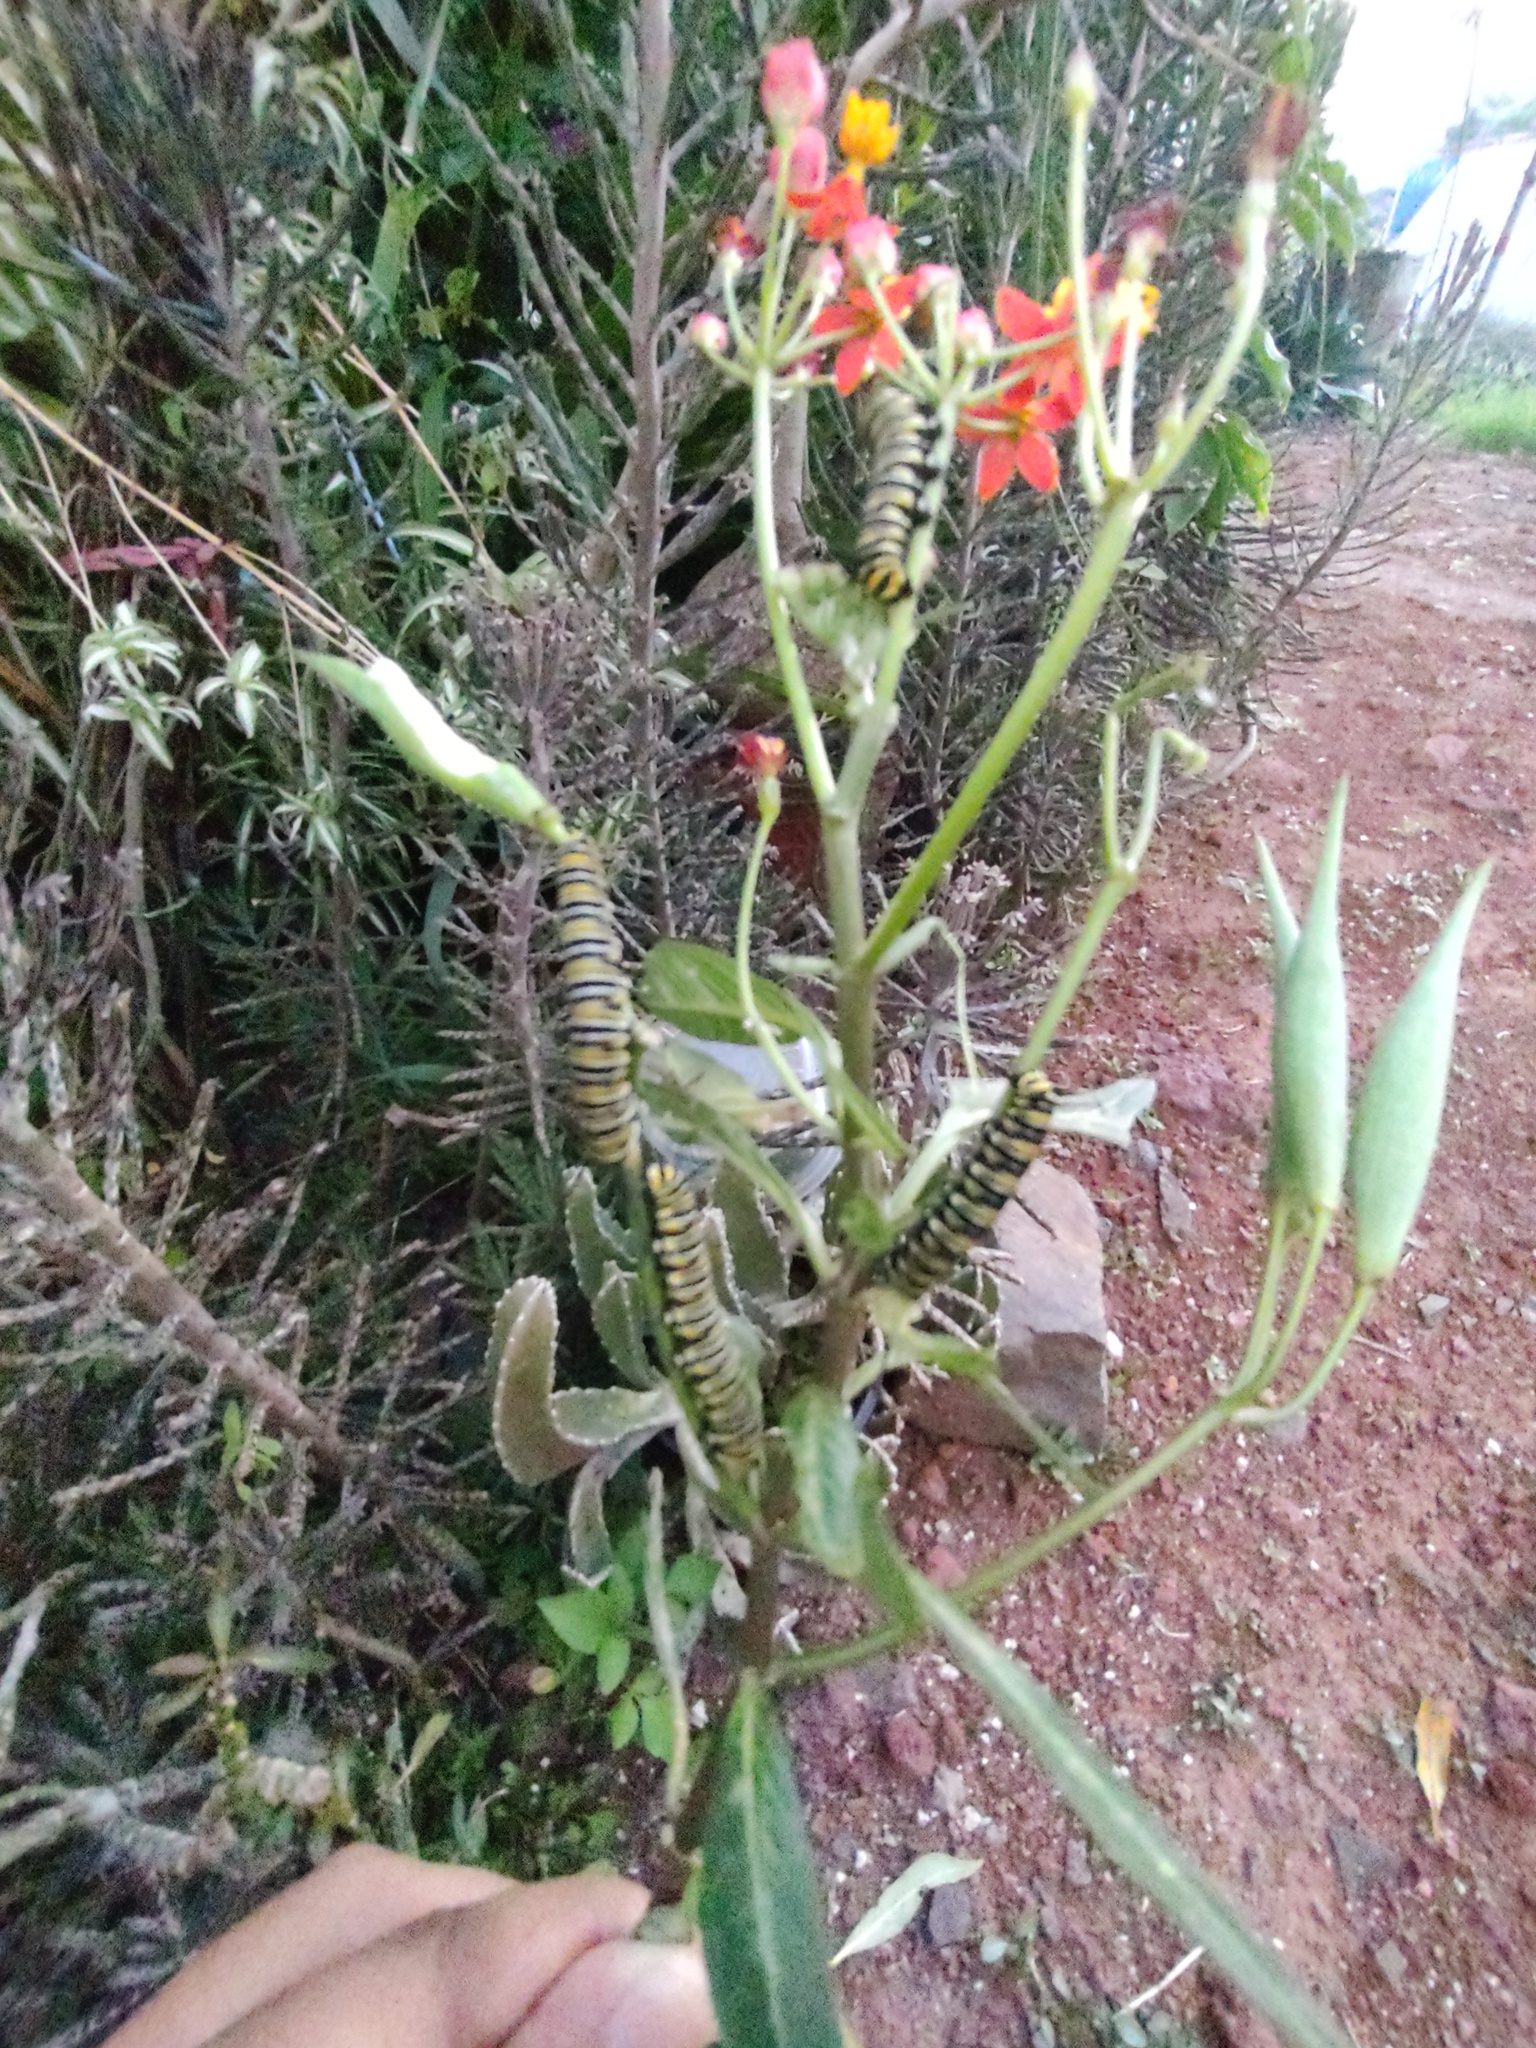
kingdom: Animalia
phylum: Arthropoda
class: Insecta
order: Lepidoptera
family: Nymphalidae
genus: Danaus
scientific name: Danaus plexippus
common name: Monarch
